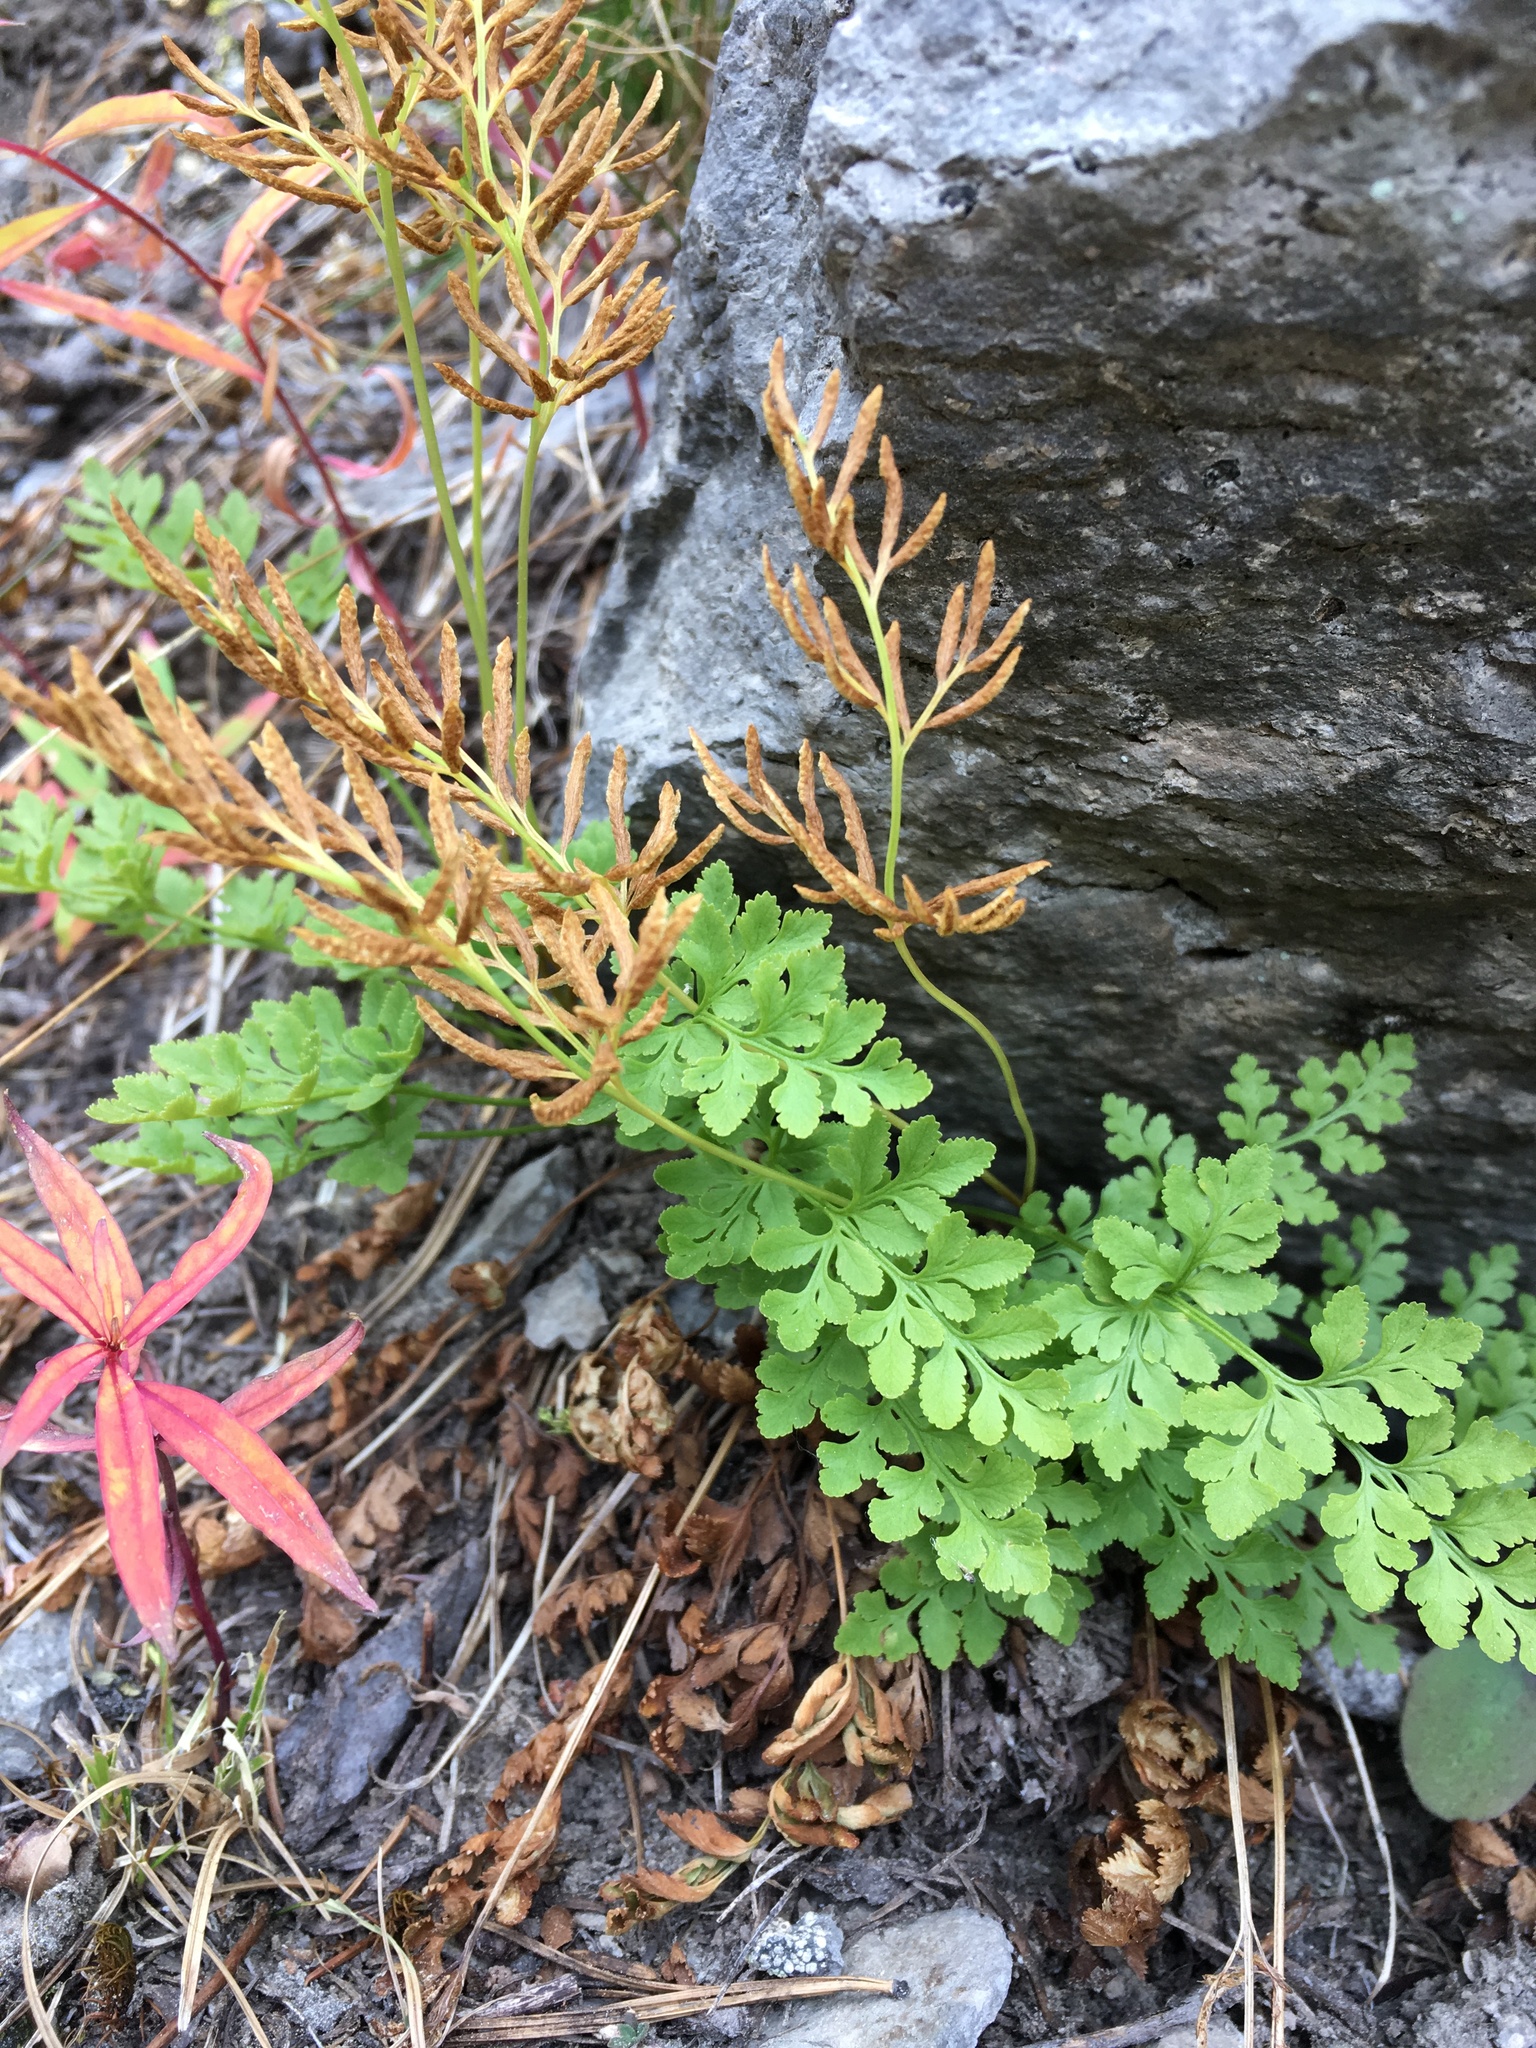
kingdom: Plantae
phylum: Tracheophyta
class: Polypodiopsida
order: Polypodiales
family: Pteridaceae
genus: Cryptogramma
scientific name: Cryptogramma acrostichoides
